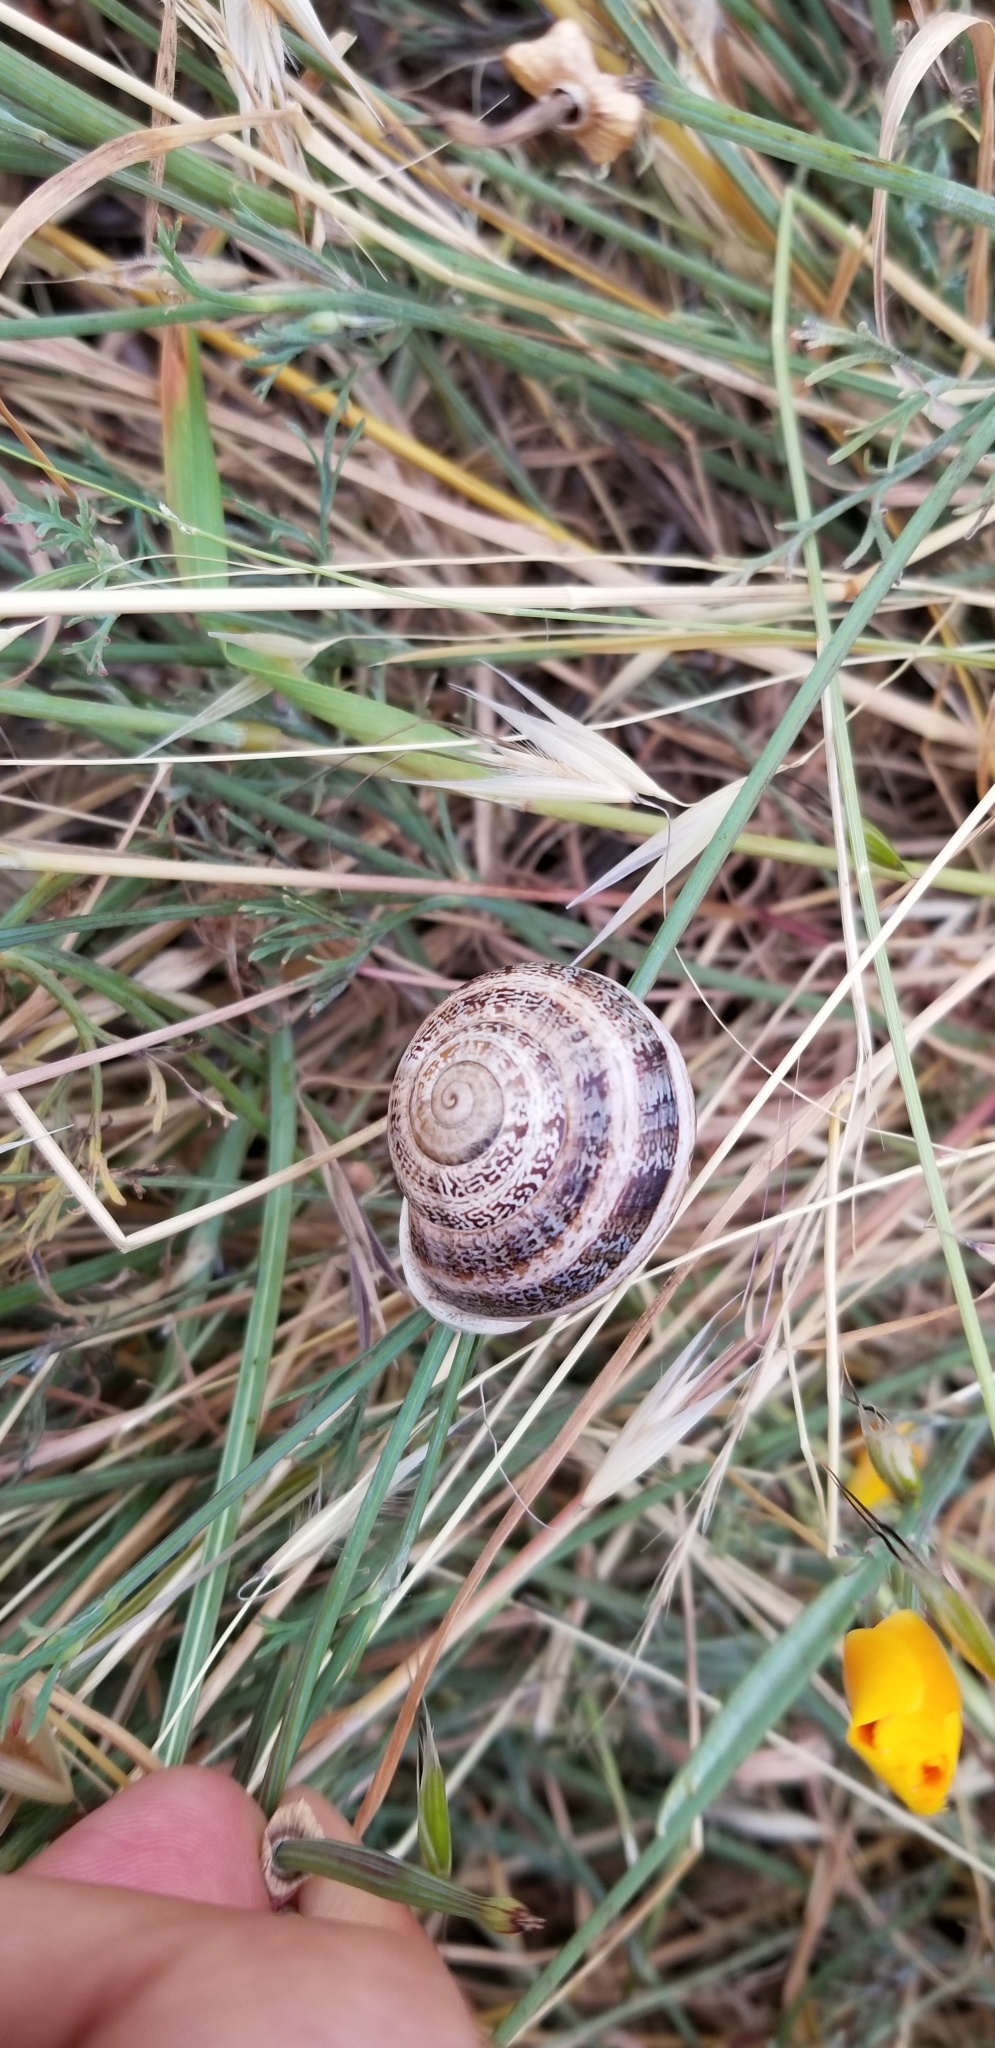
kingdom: Animalia
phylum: Mollusca
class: Gastropoda
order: Stylommatophora
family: Helicidae
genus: Otala
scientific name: Otala lactea
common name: Milk snail
